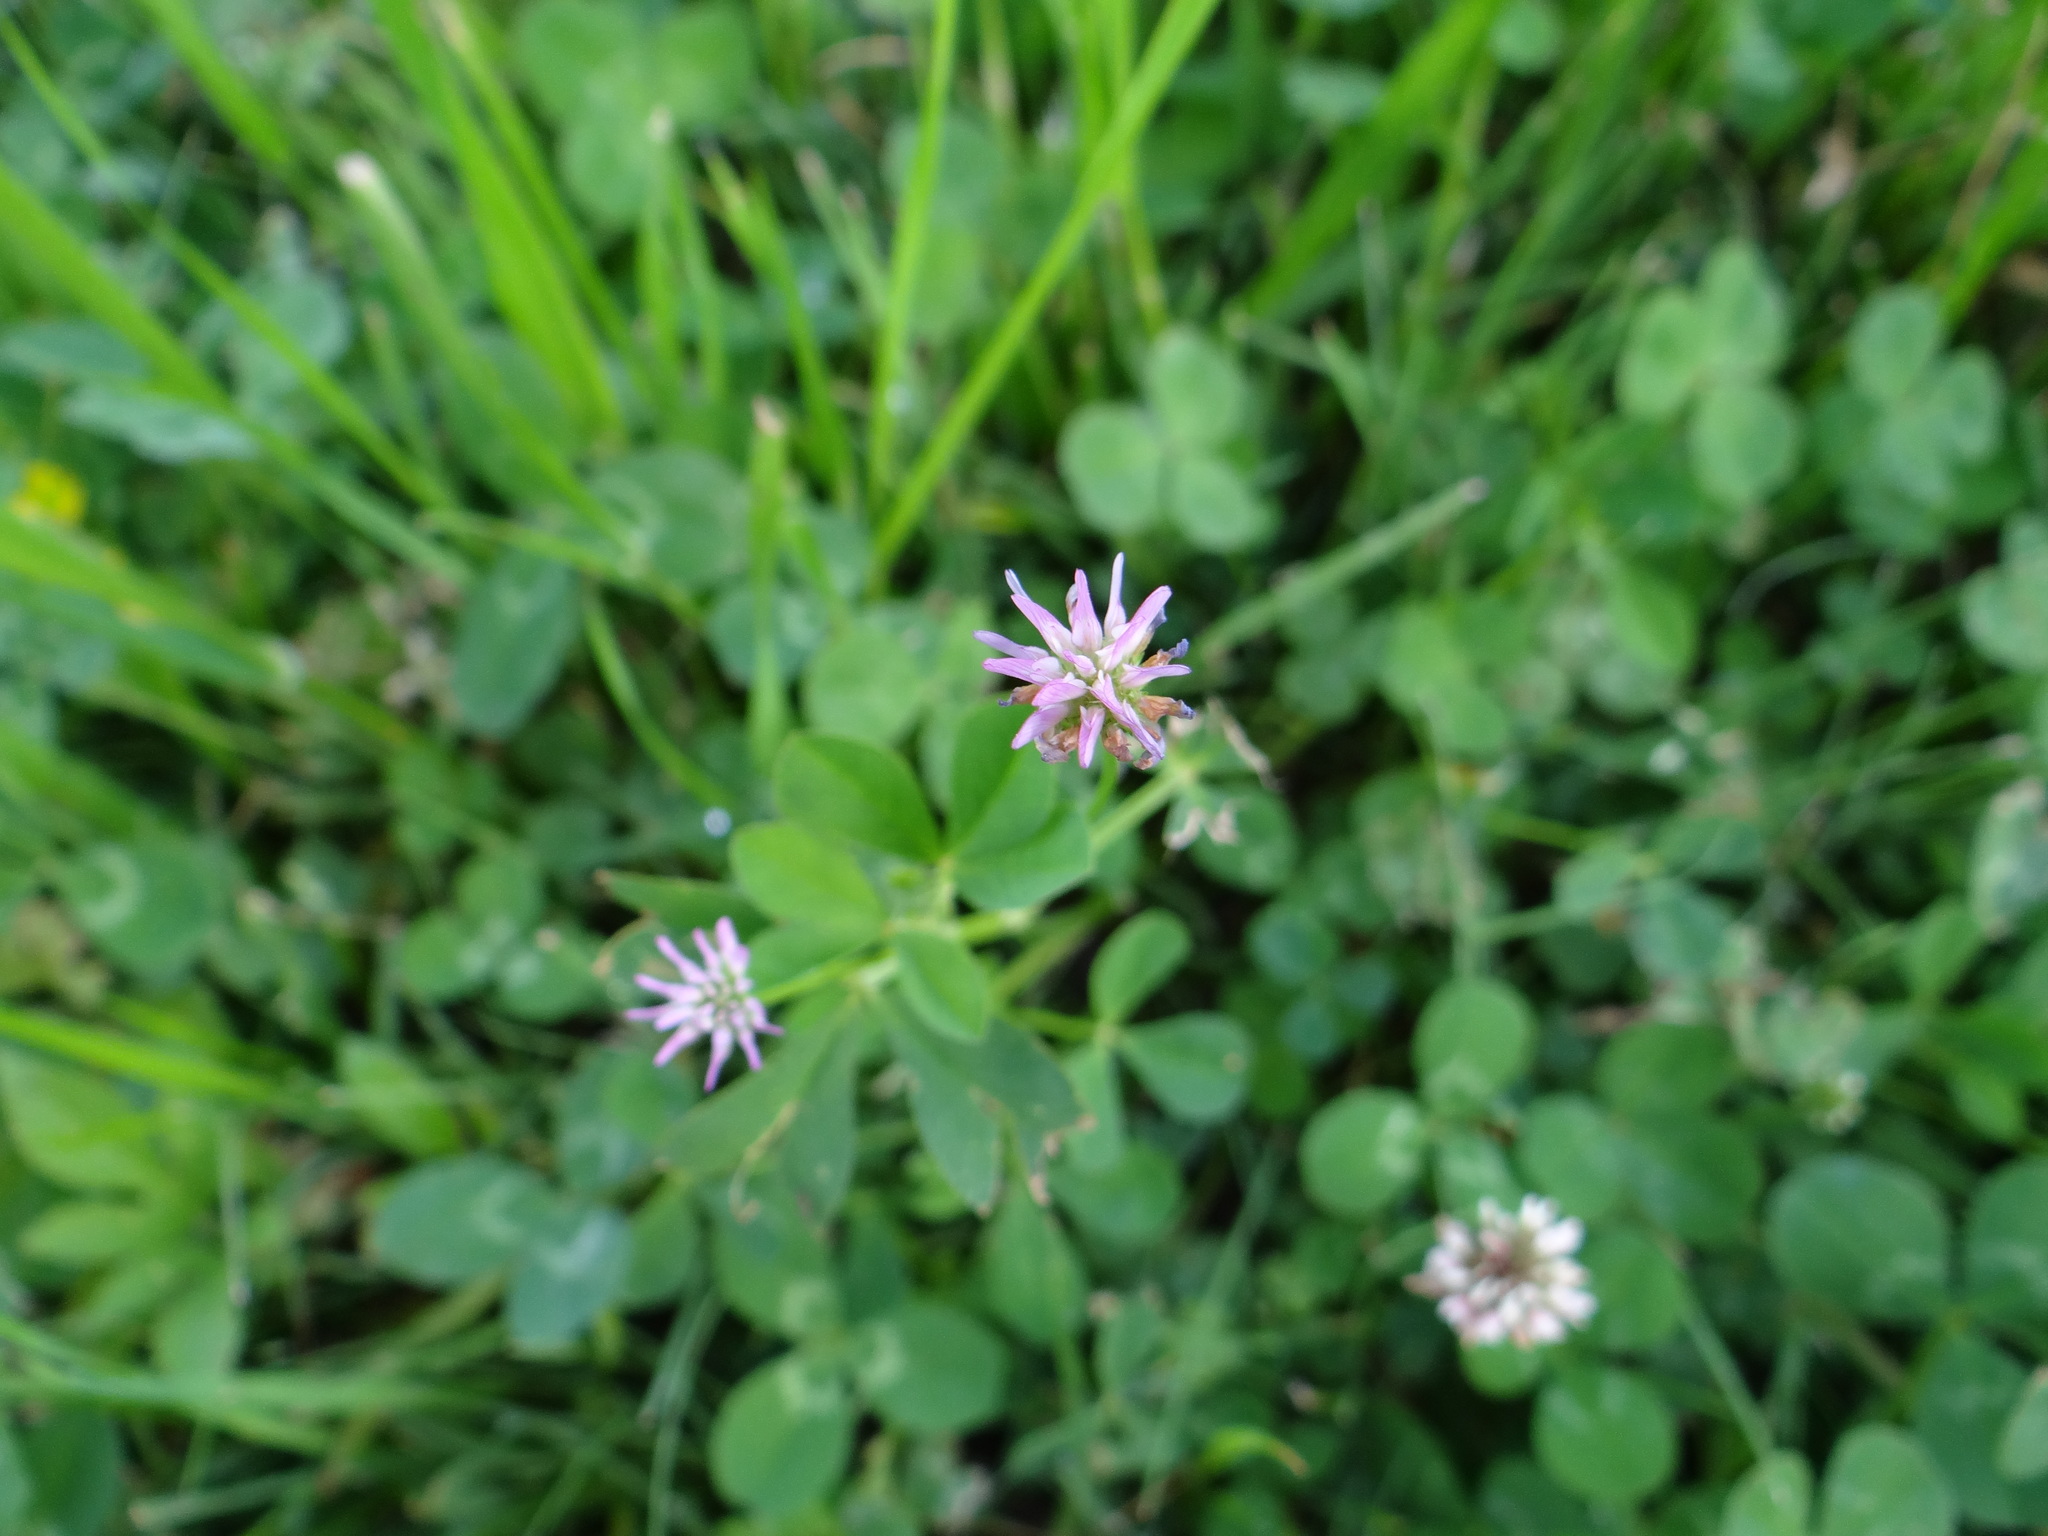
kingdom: Plantae
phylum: Tracheophyta
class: Magnoliopsida
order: Fabales
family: Fabaceae
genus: Trifolium
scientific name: Trifolium resupinatum
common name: Reversed clover
